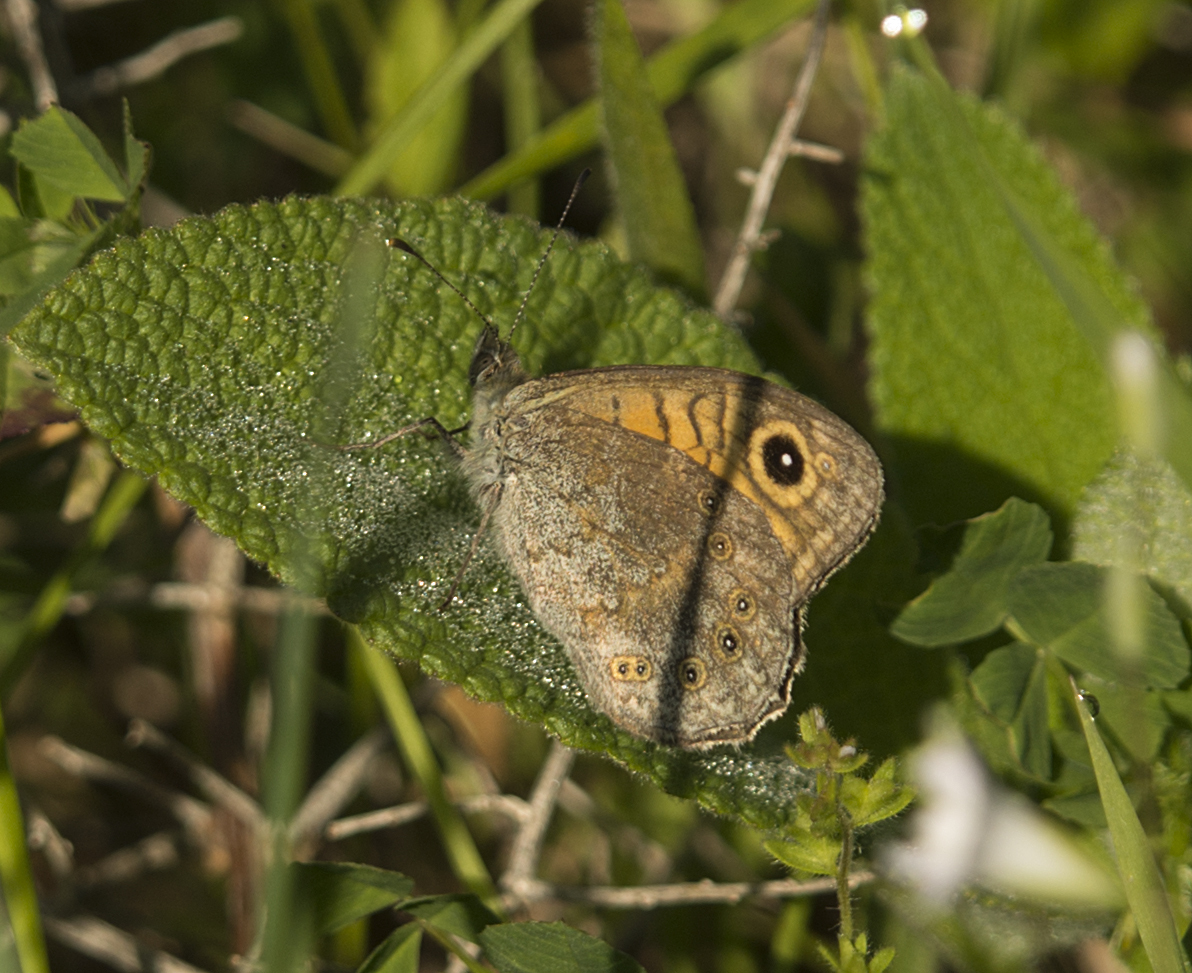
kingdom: Animalia
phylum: Arthropoda
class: Insecta
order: Lepidoptera
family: Nymphalidae
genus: Pararge
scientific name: Pararge Lasiommata megera
